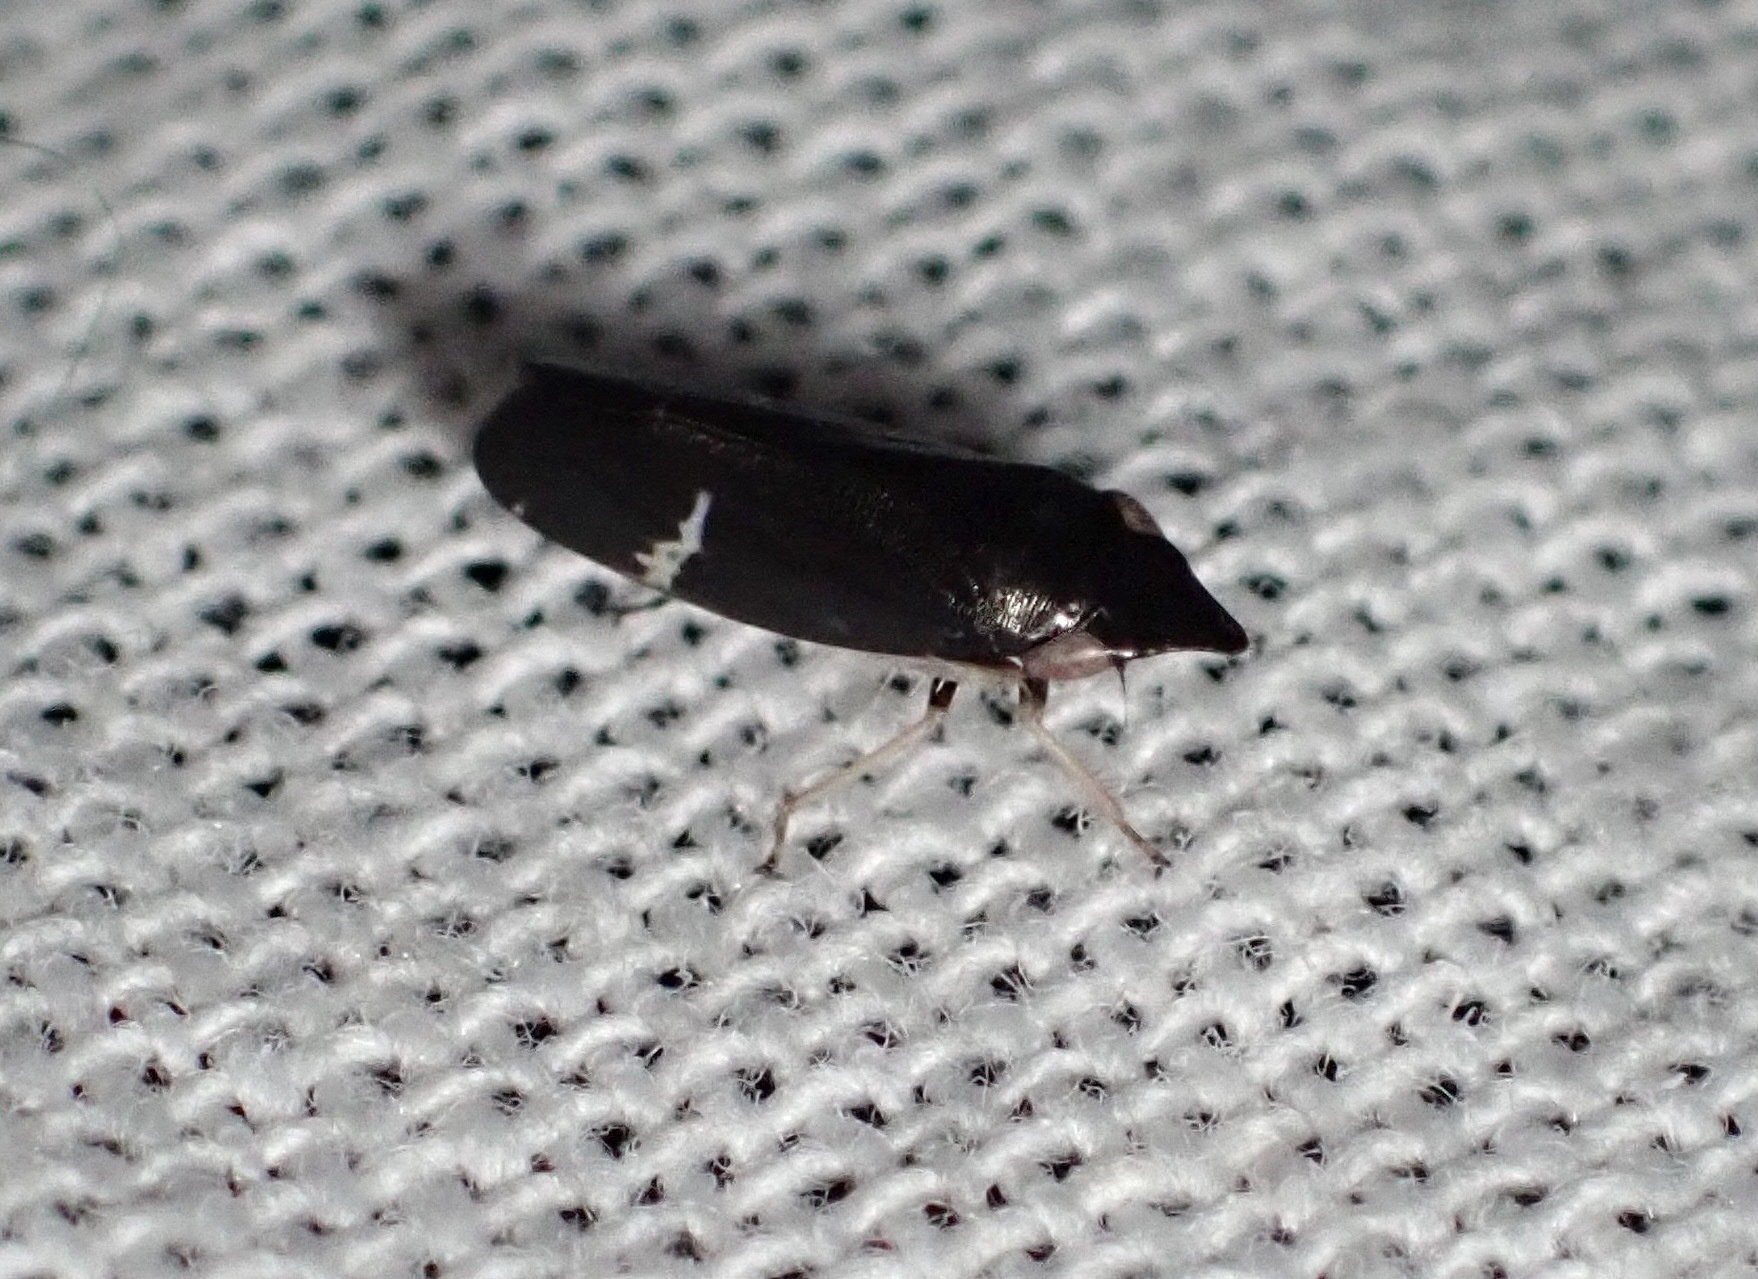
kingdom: Animalia
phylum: Arthropoda
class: Insecta
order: Hemiptera
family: Cicadellidae
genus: Cochlorhinus
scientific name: Cochlorhinus pluto
